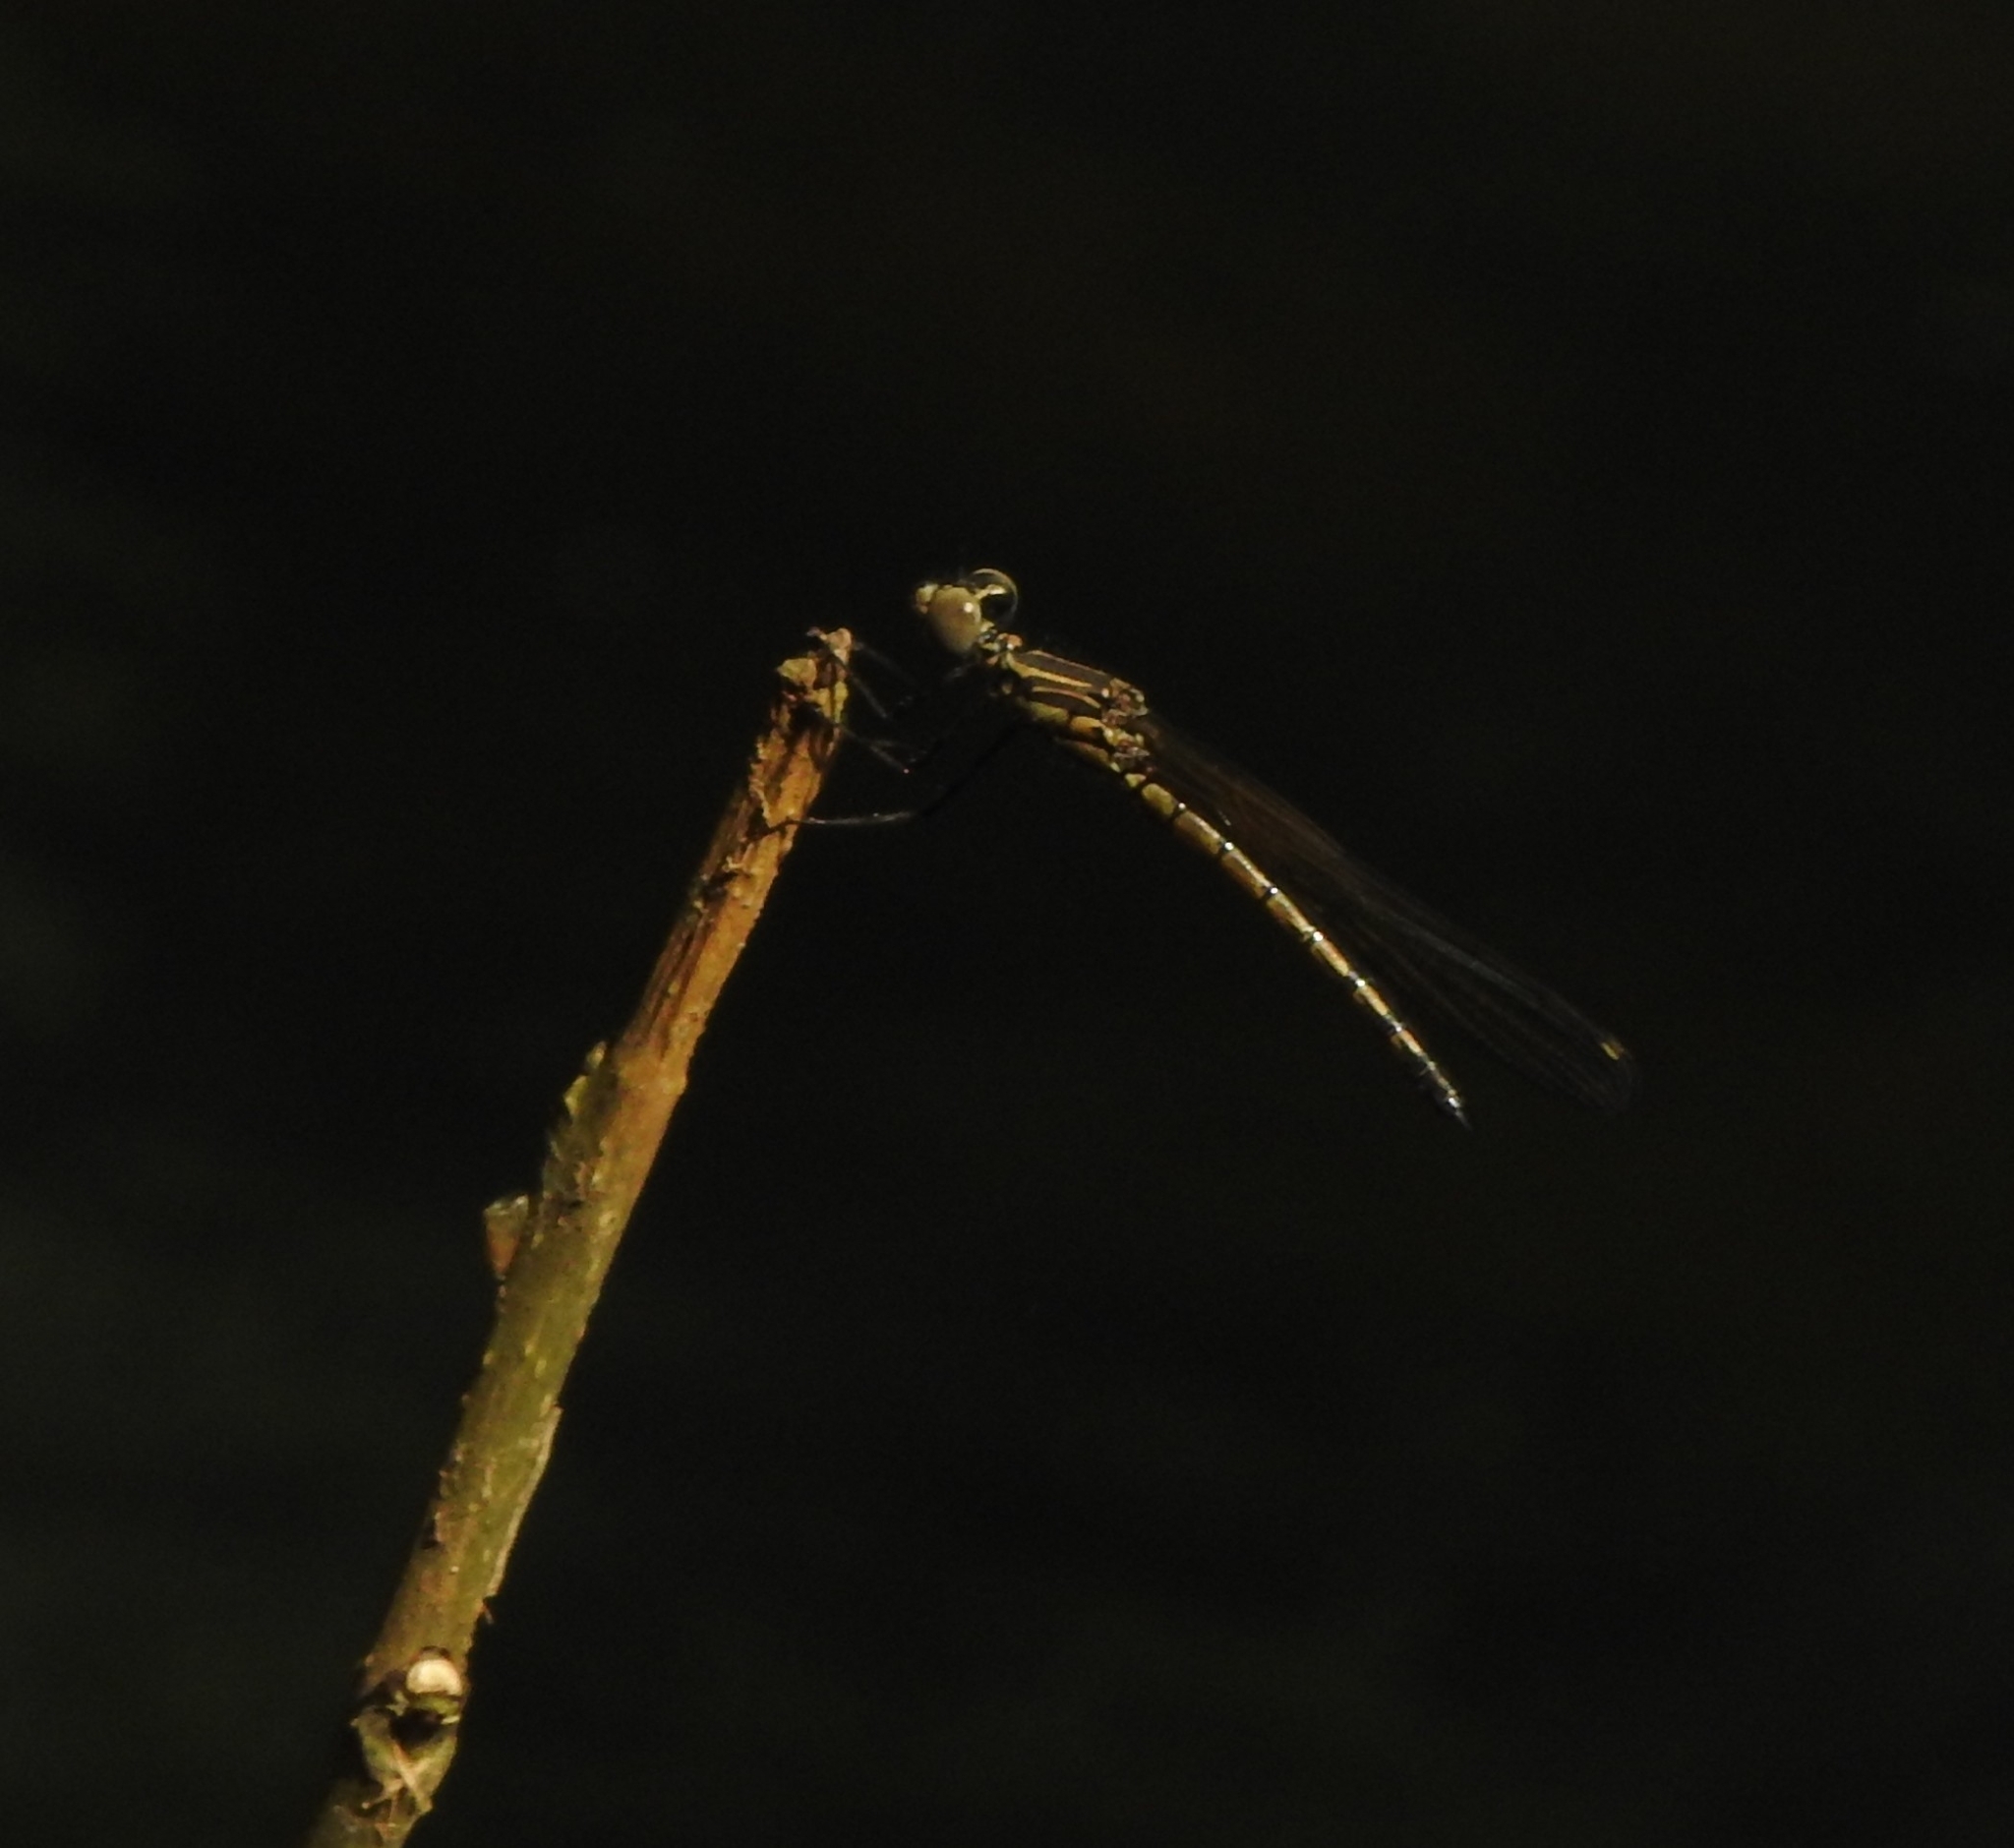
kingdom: Animalia
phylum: Arthropoda
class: Insecta
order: Odonata
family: Chlorocyphidae
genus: Libellago
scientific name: Libellago indica
